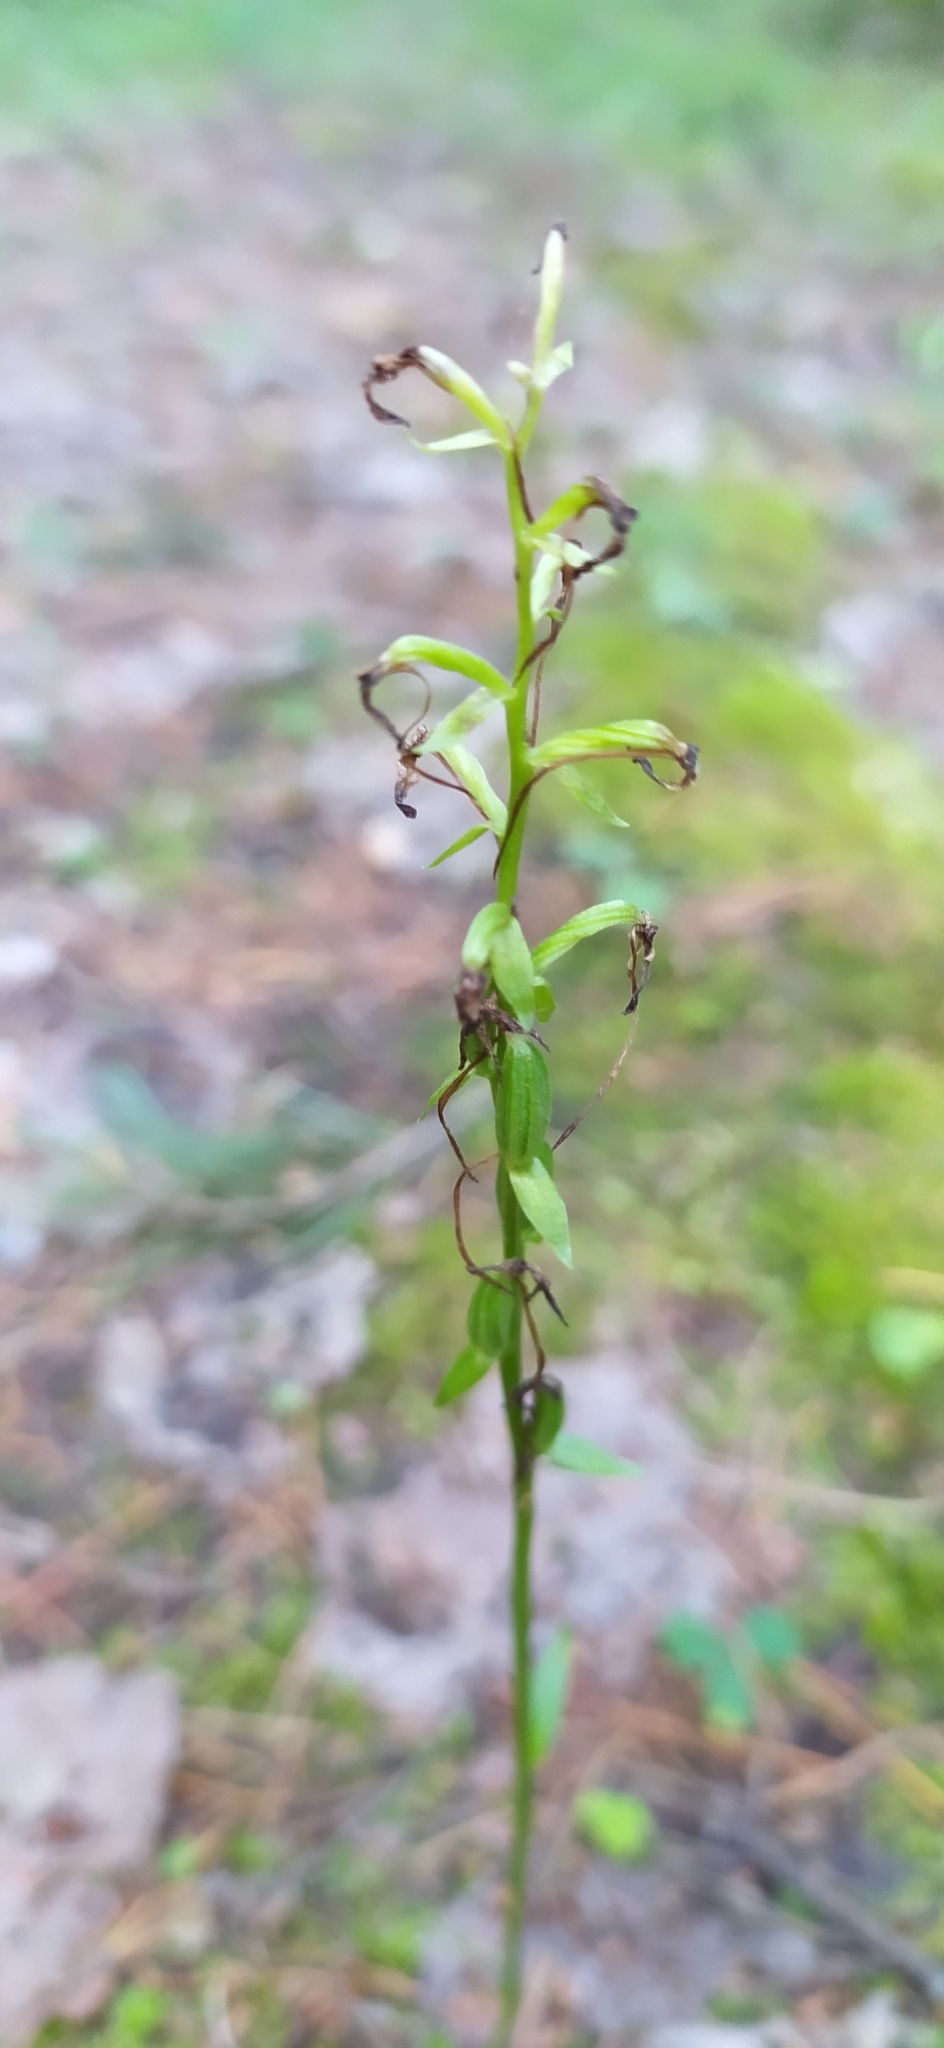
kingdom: Plantae
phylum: Tracheophyta
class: Liliopsida
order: Asparagales
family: Orchidaceae
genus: Platanthera
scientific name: Platanthera bifolia
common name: Lesser butterfly-orchid
